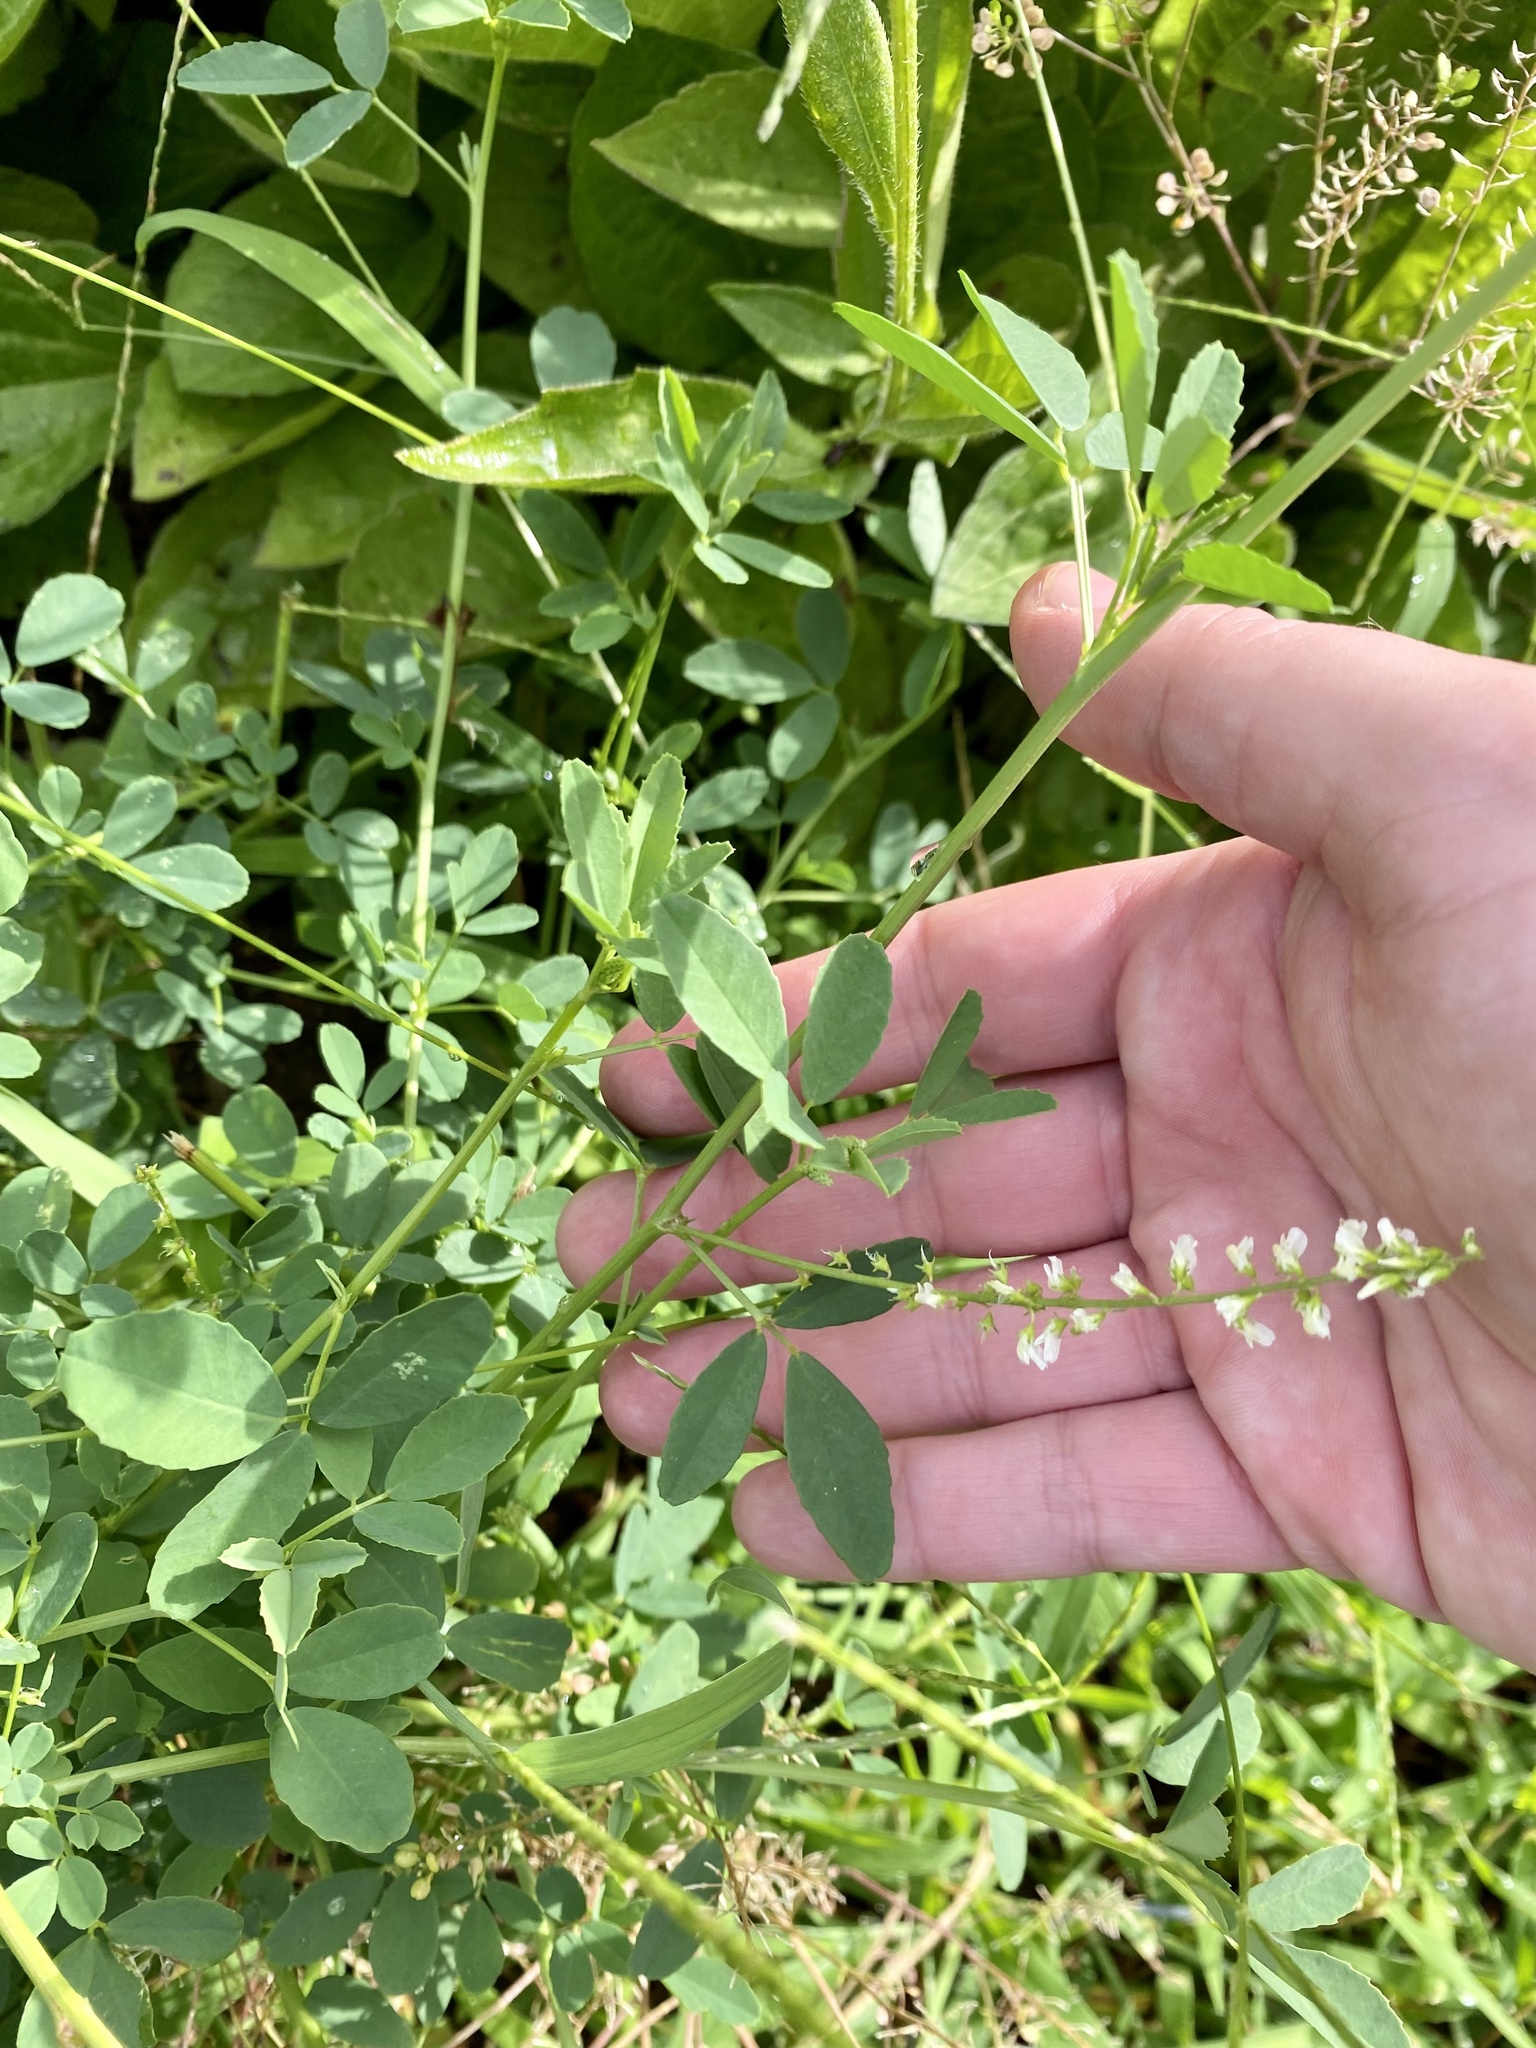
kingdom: Plantae
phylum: Tracheophyta
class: Magnoliopsida
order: Fabales
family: Fabaceae
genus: Melilotus
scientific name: Melilotus albus
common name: White melilot
